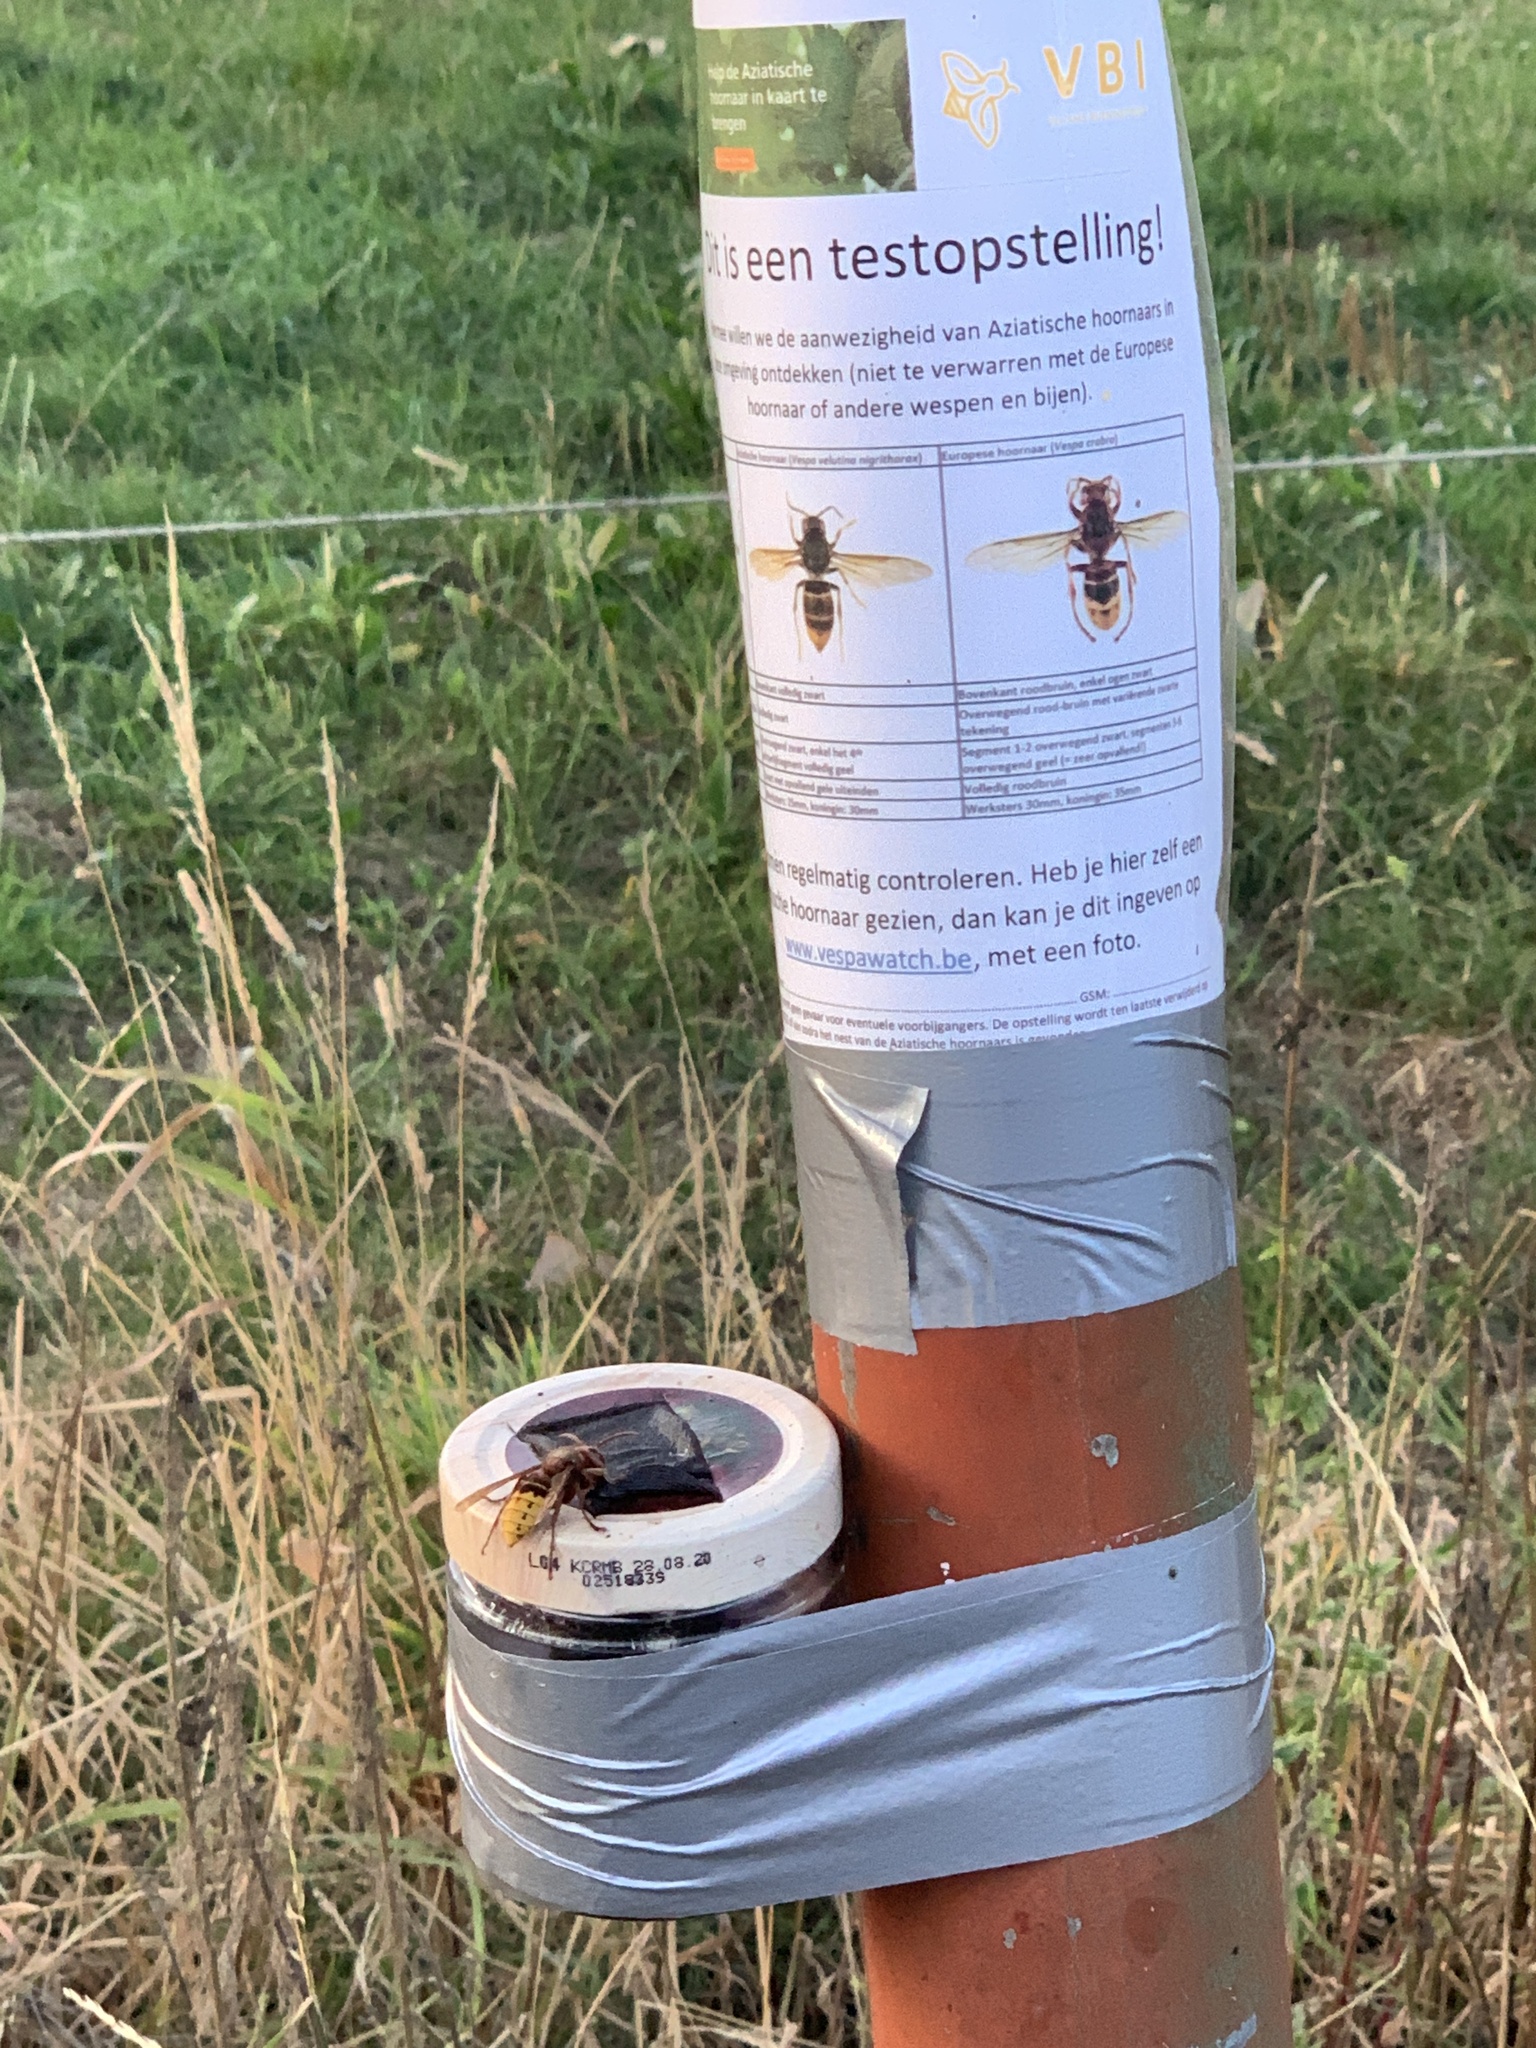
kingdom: Animalia
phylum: Arthropoda
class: Insecta
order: Hymenoptera
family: Vespidae
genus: Vespa
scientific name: Vespa crabro
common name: Hornet
